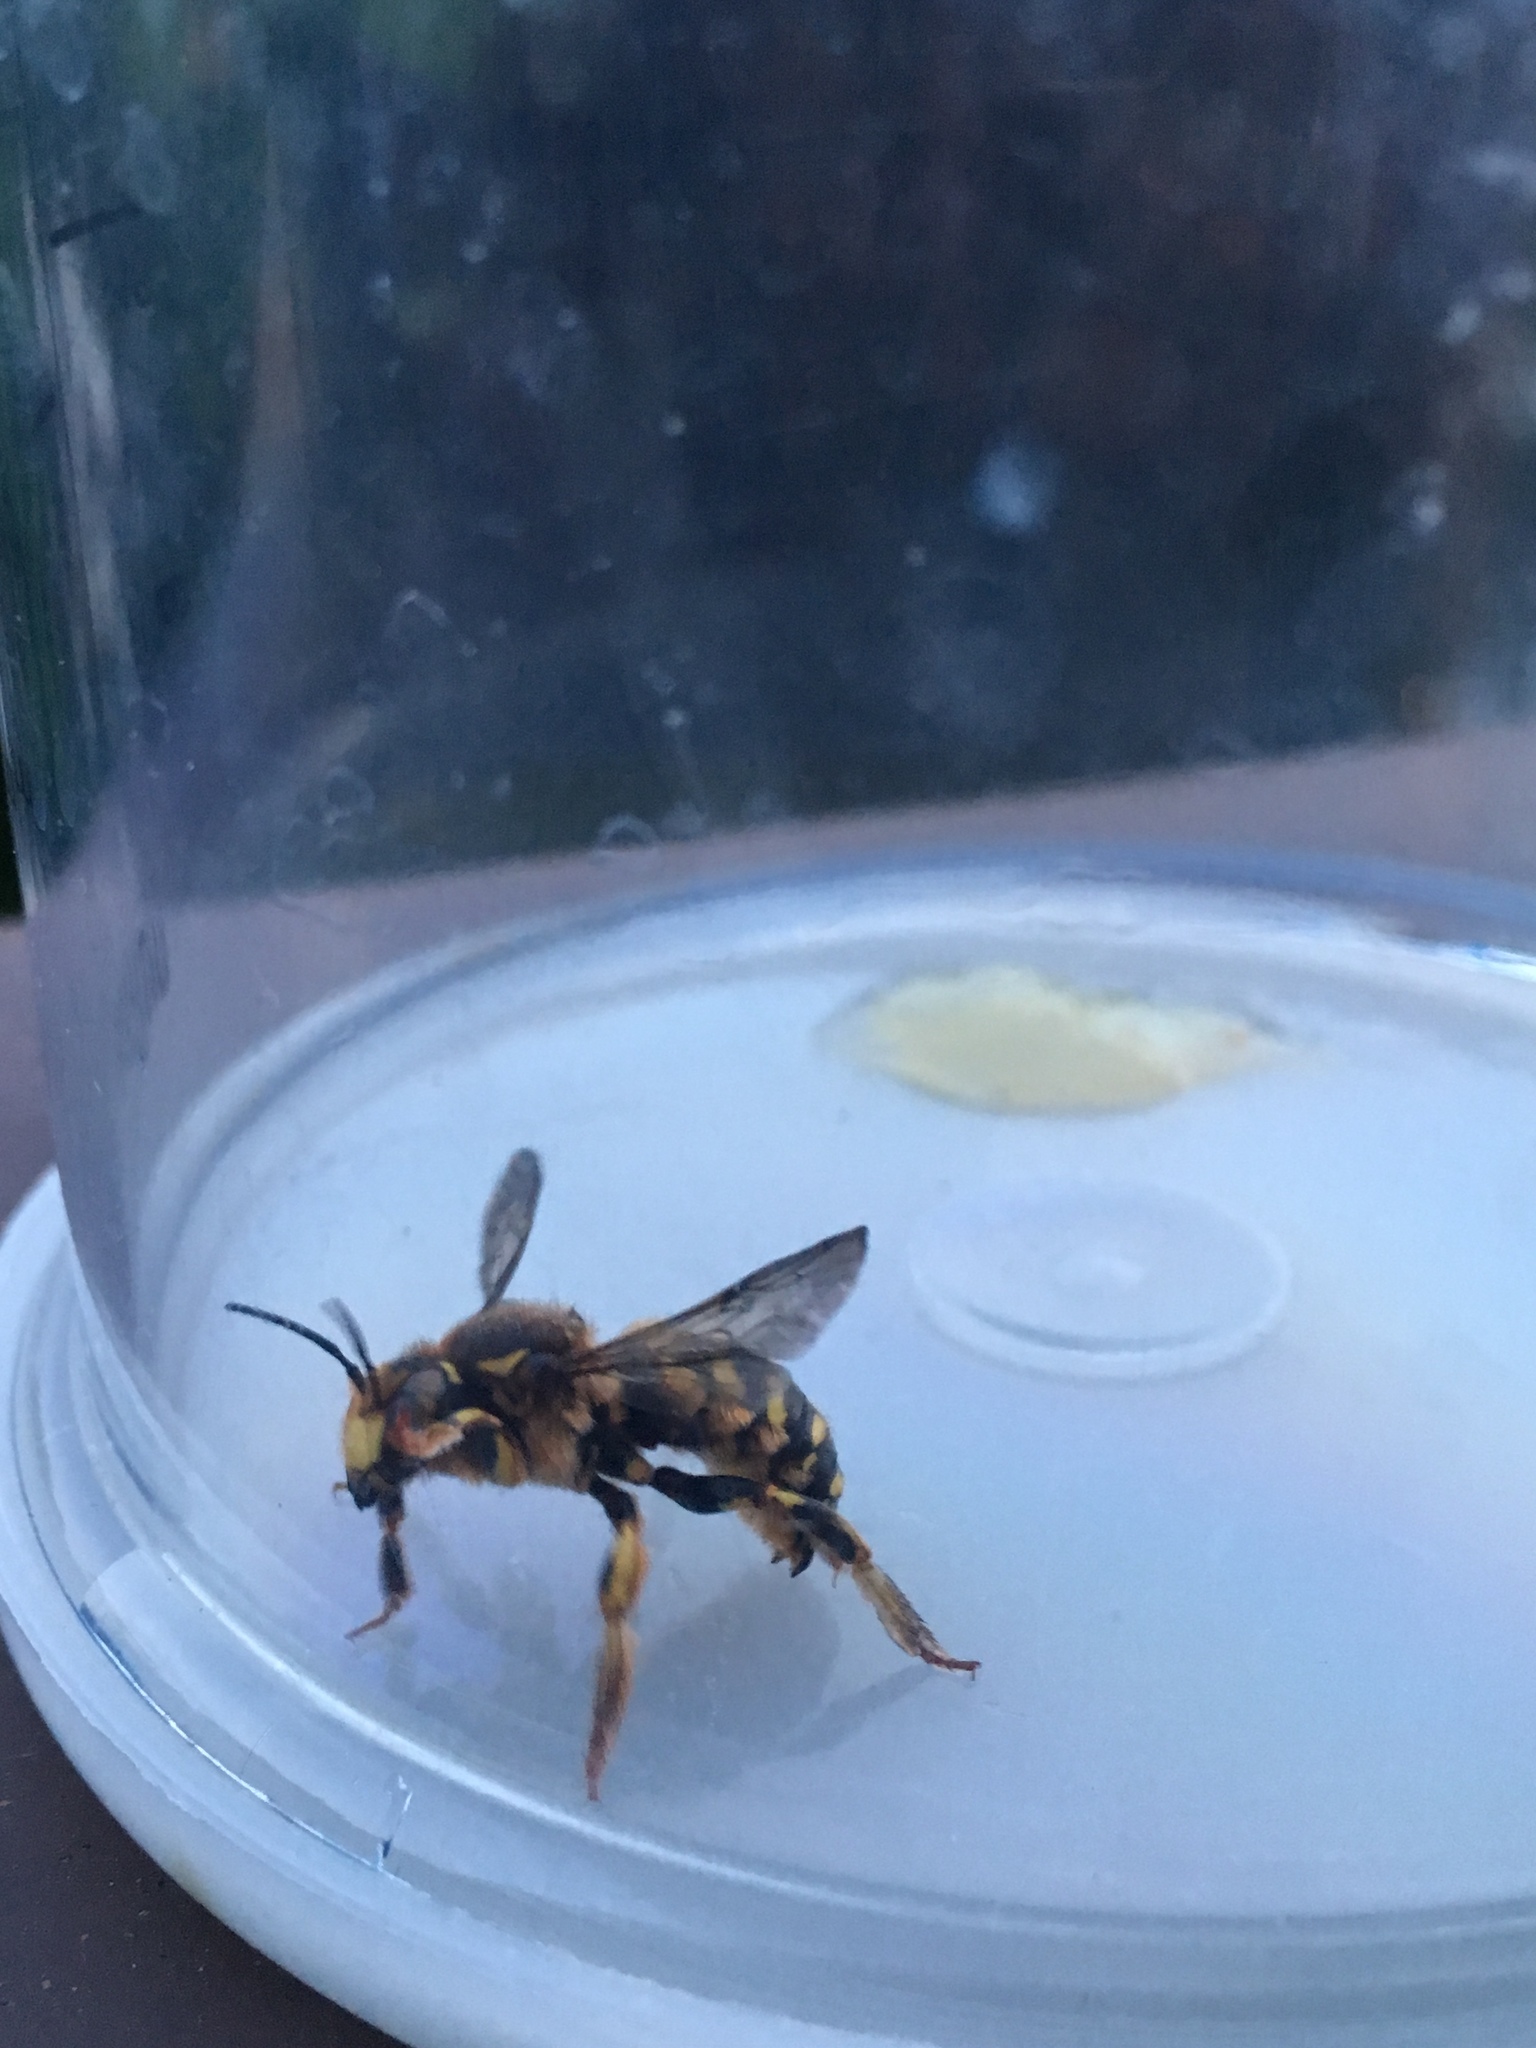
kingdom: Animalia
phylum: Arthropoda
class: Insecta
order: Hymenoptera
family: Megachilidae
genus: Anthidium
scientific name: Anthidium manicatum
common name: Wool carder bee
